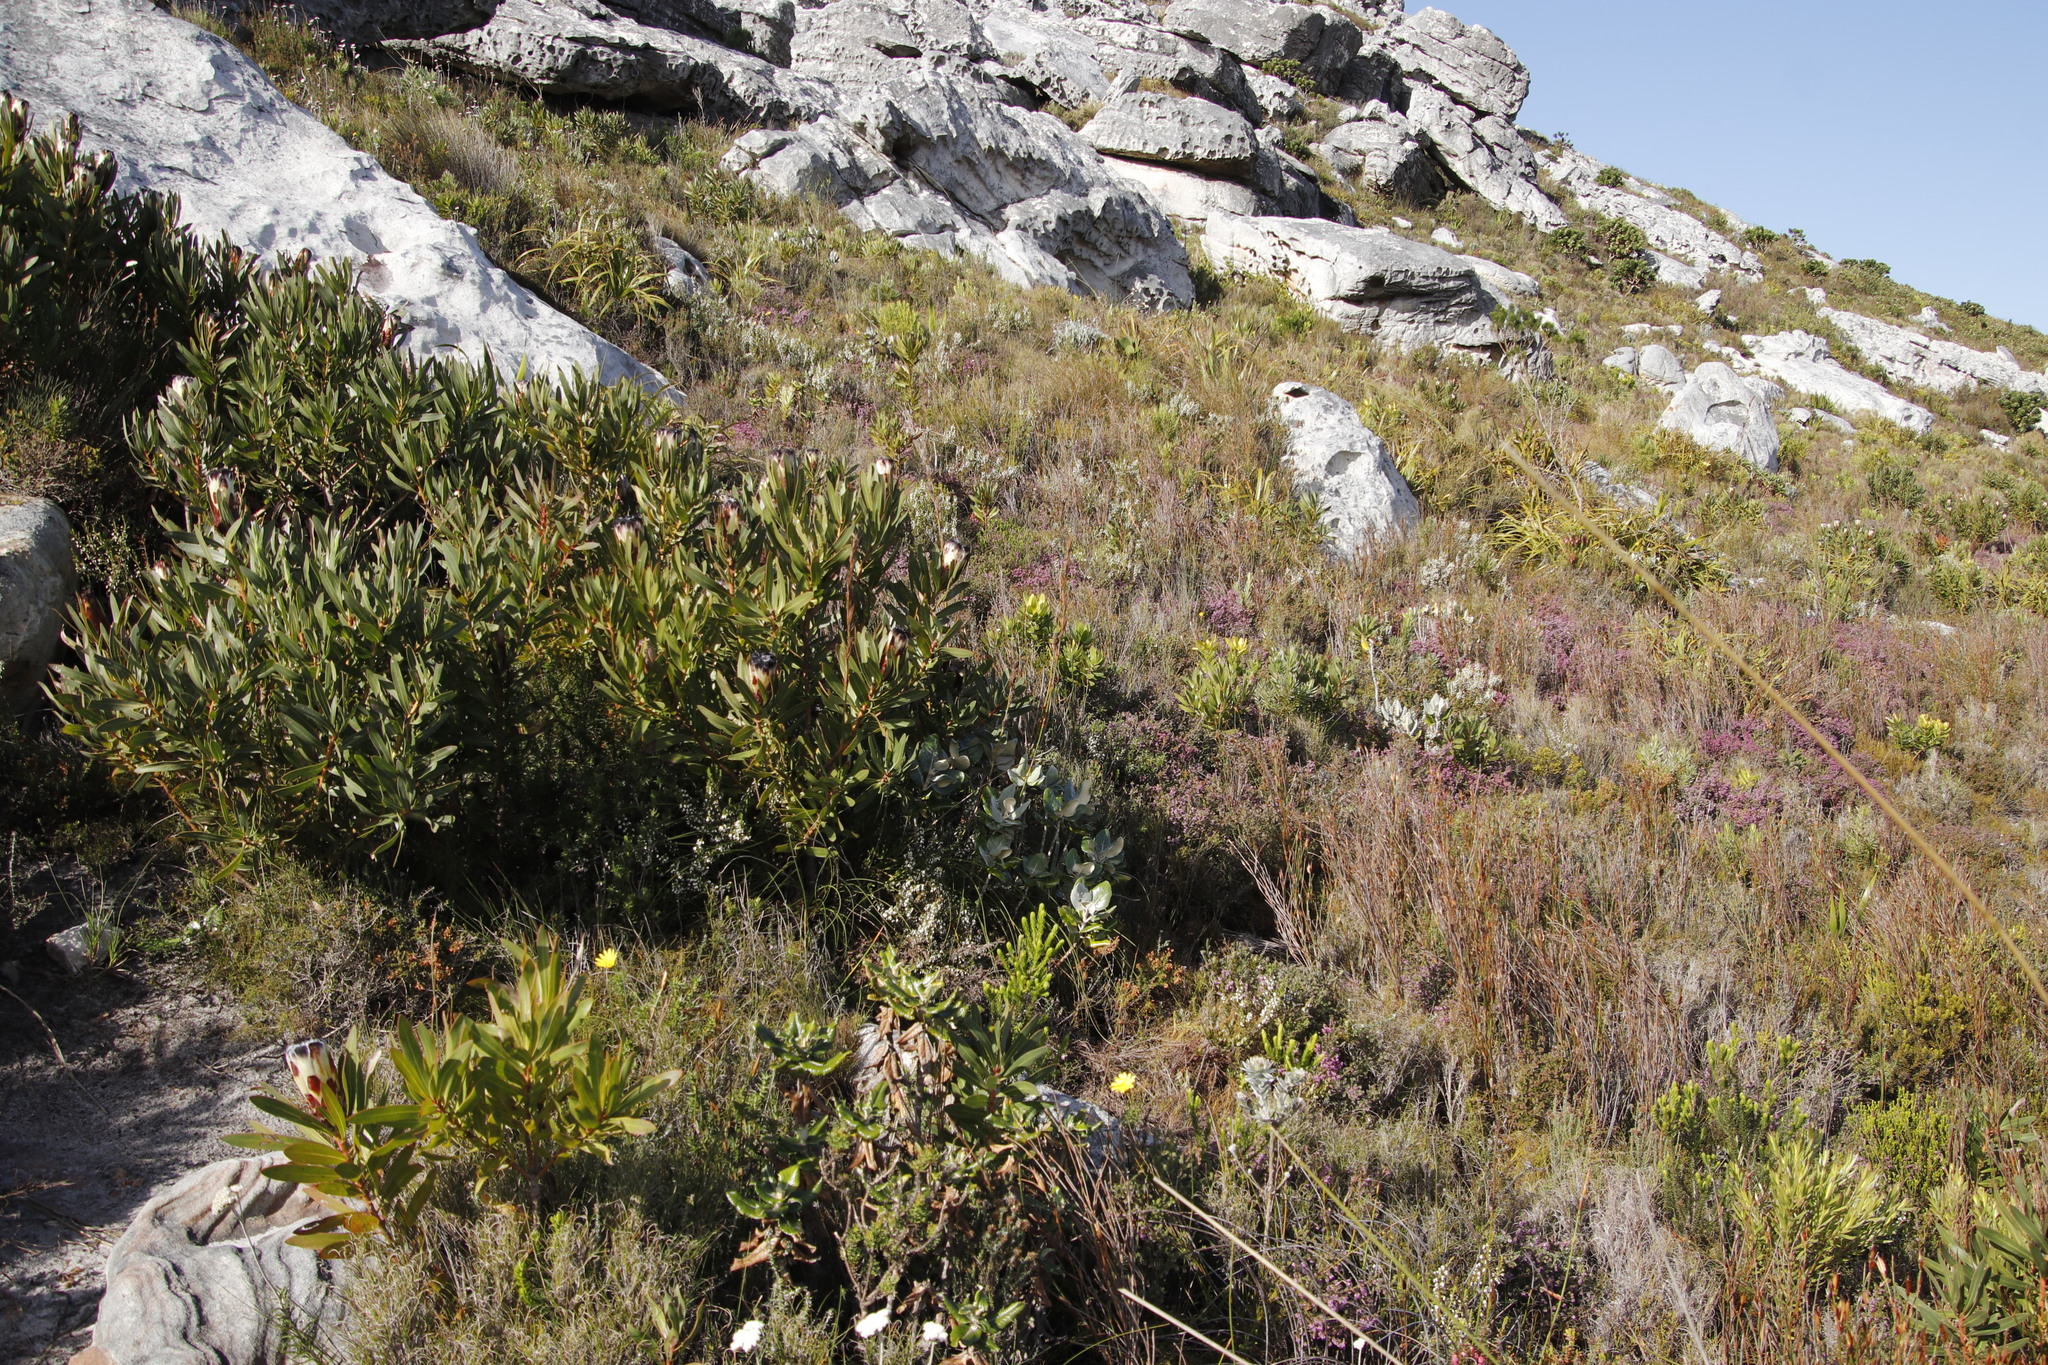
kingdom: Plantae
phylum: Tracheophyta
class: Magnoliopsida
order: Proteales
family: Proteaceae
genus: Protea
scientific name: Protea lepidocarpodendron
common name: Black-bearded protea
